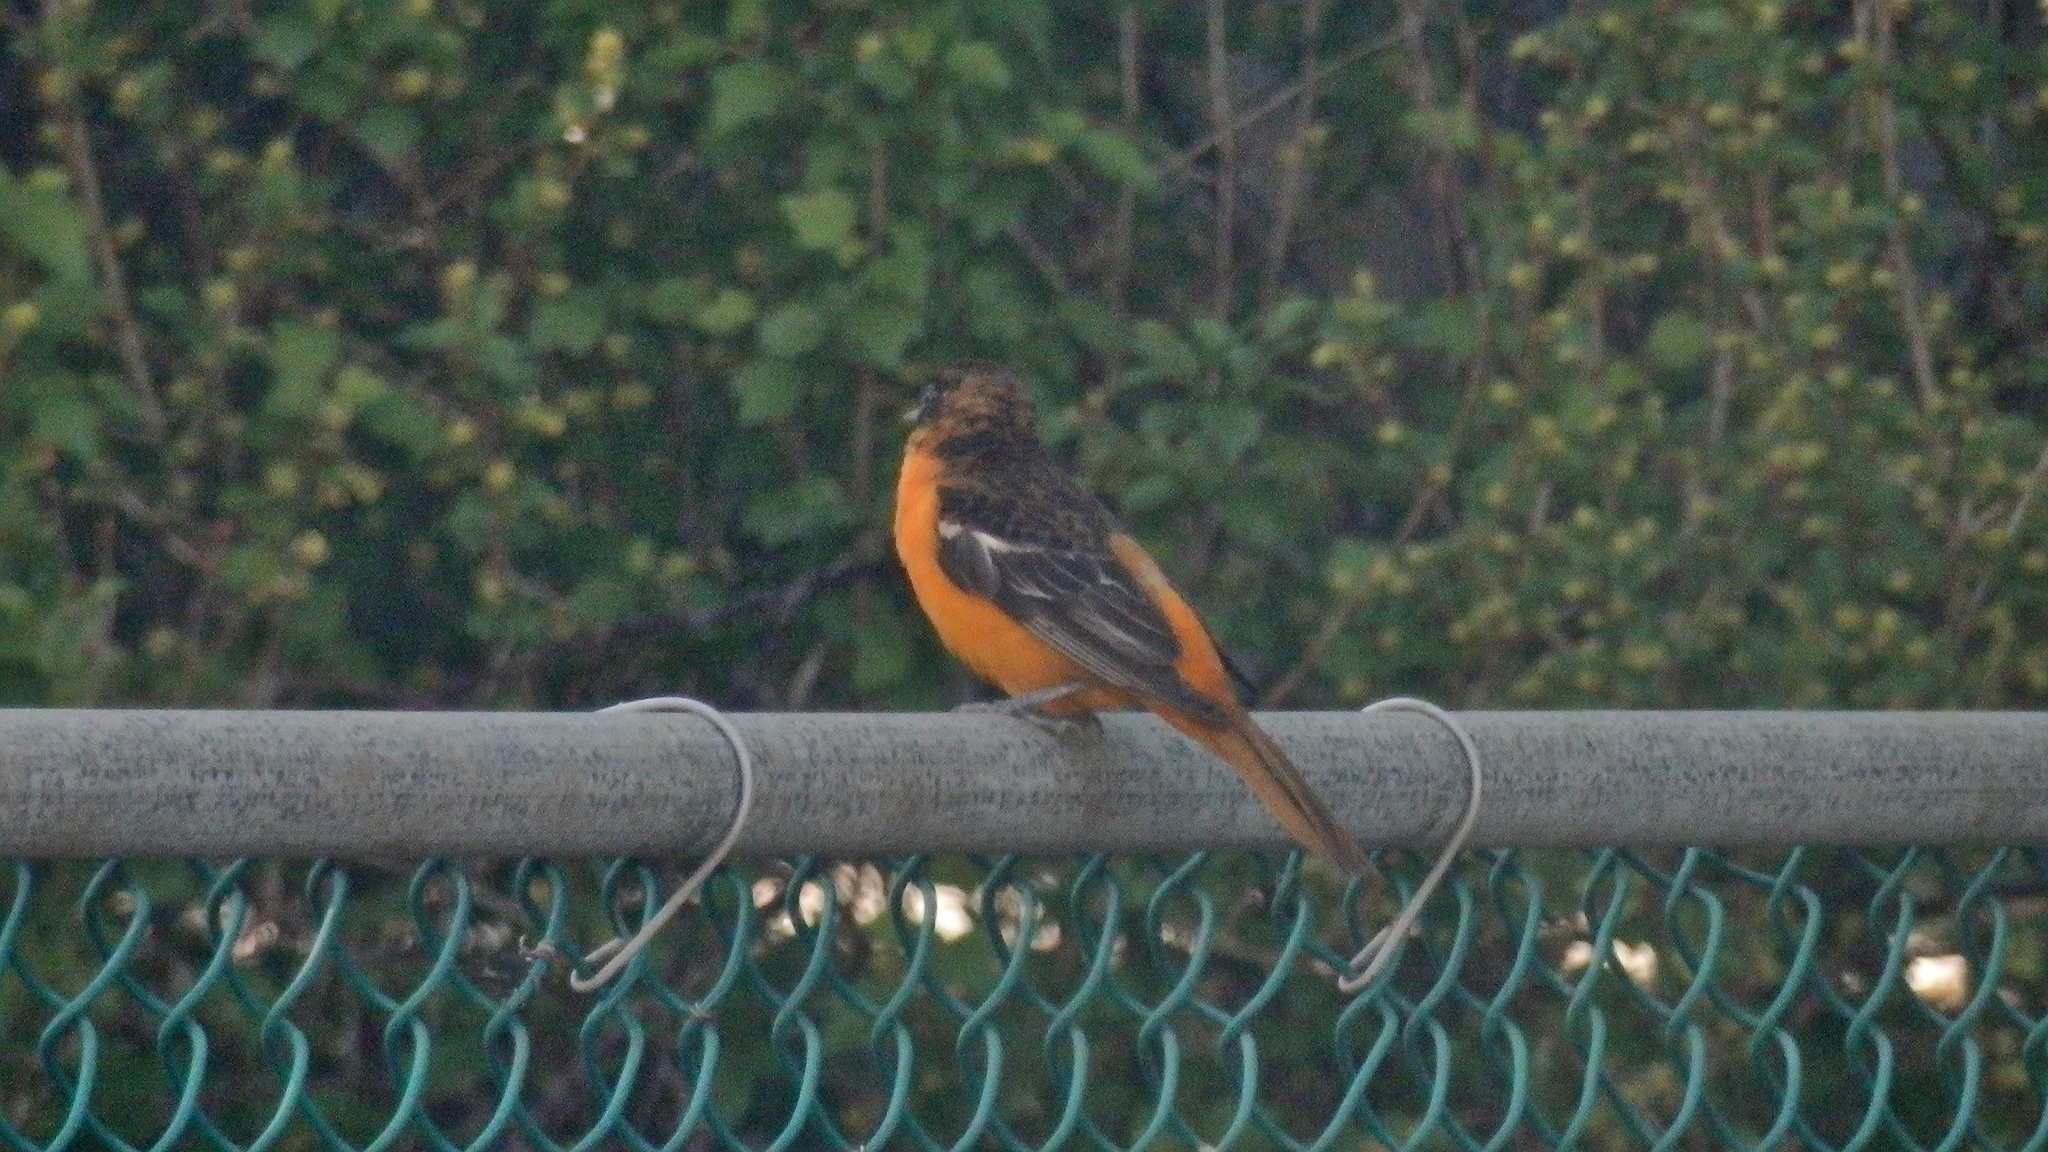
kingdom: Animalia
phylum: Chordata
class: Aves
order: Passeriformes
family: Icteridae
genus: Icterus
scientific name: Icterus galbula
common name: Baltimore oriole
